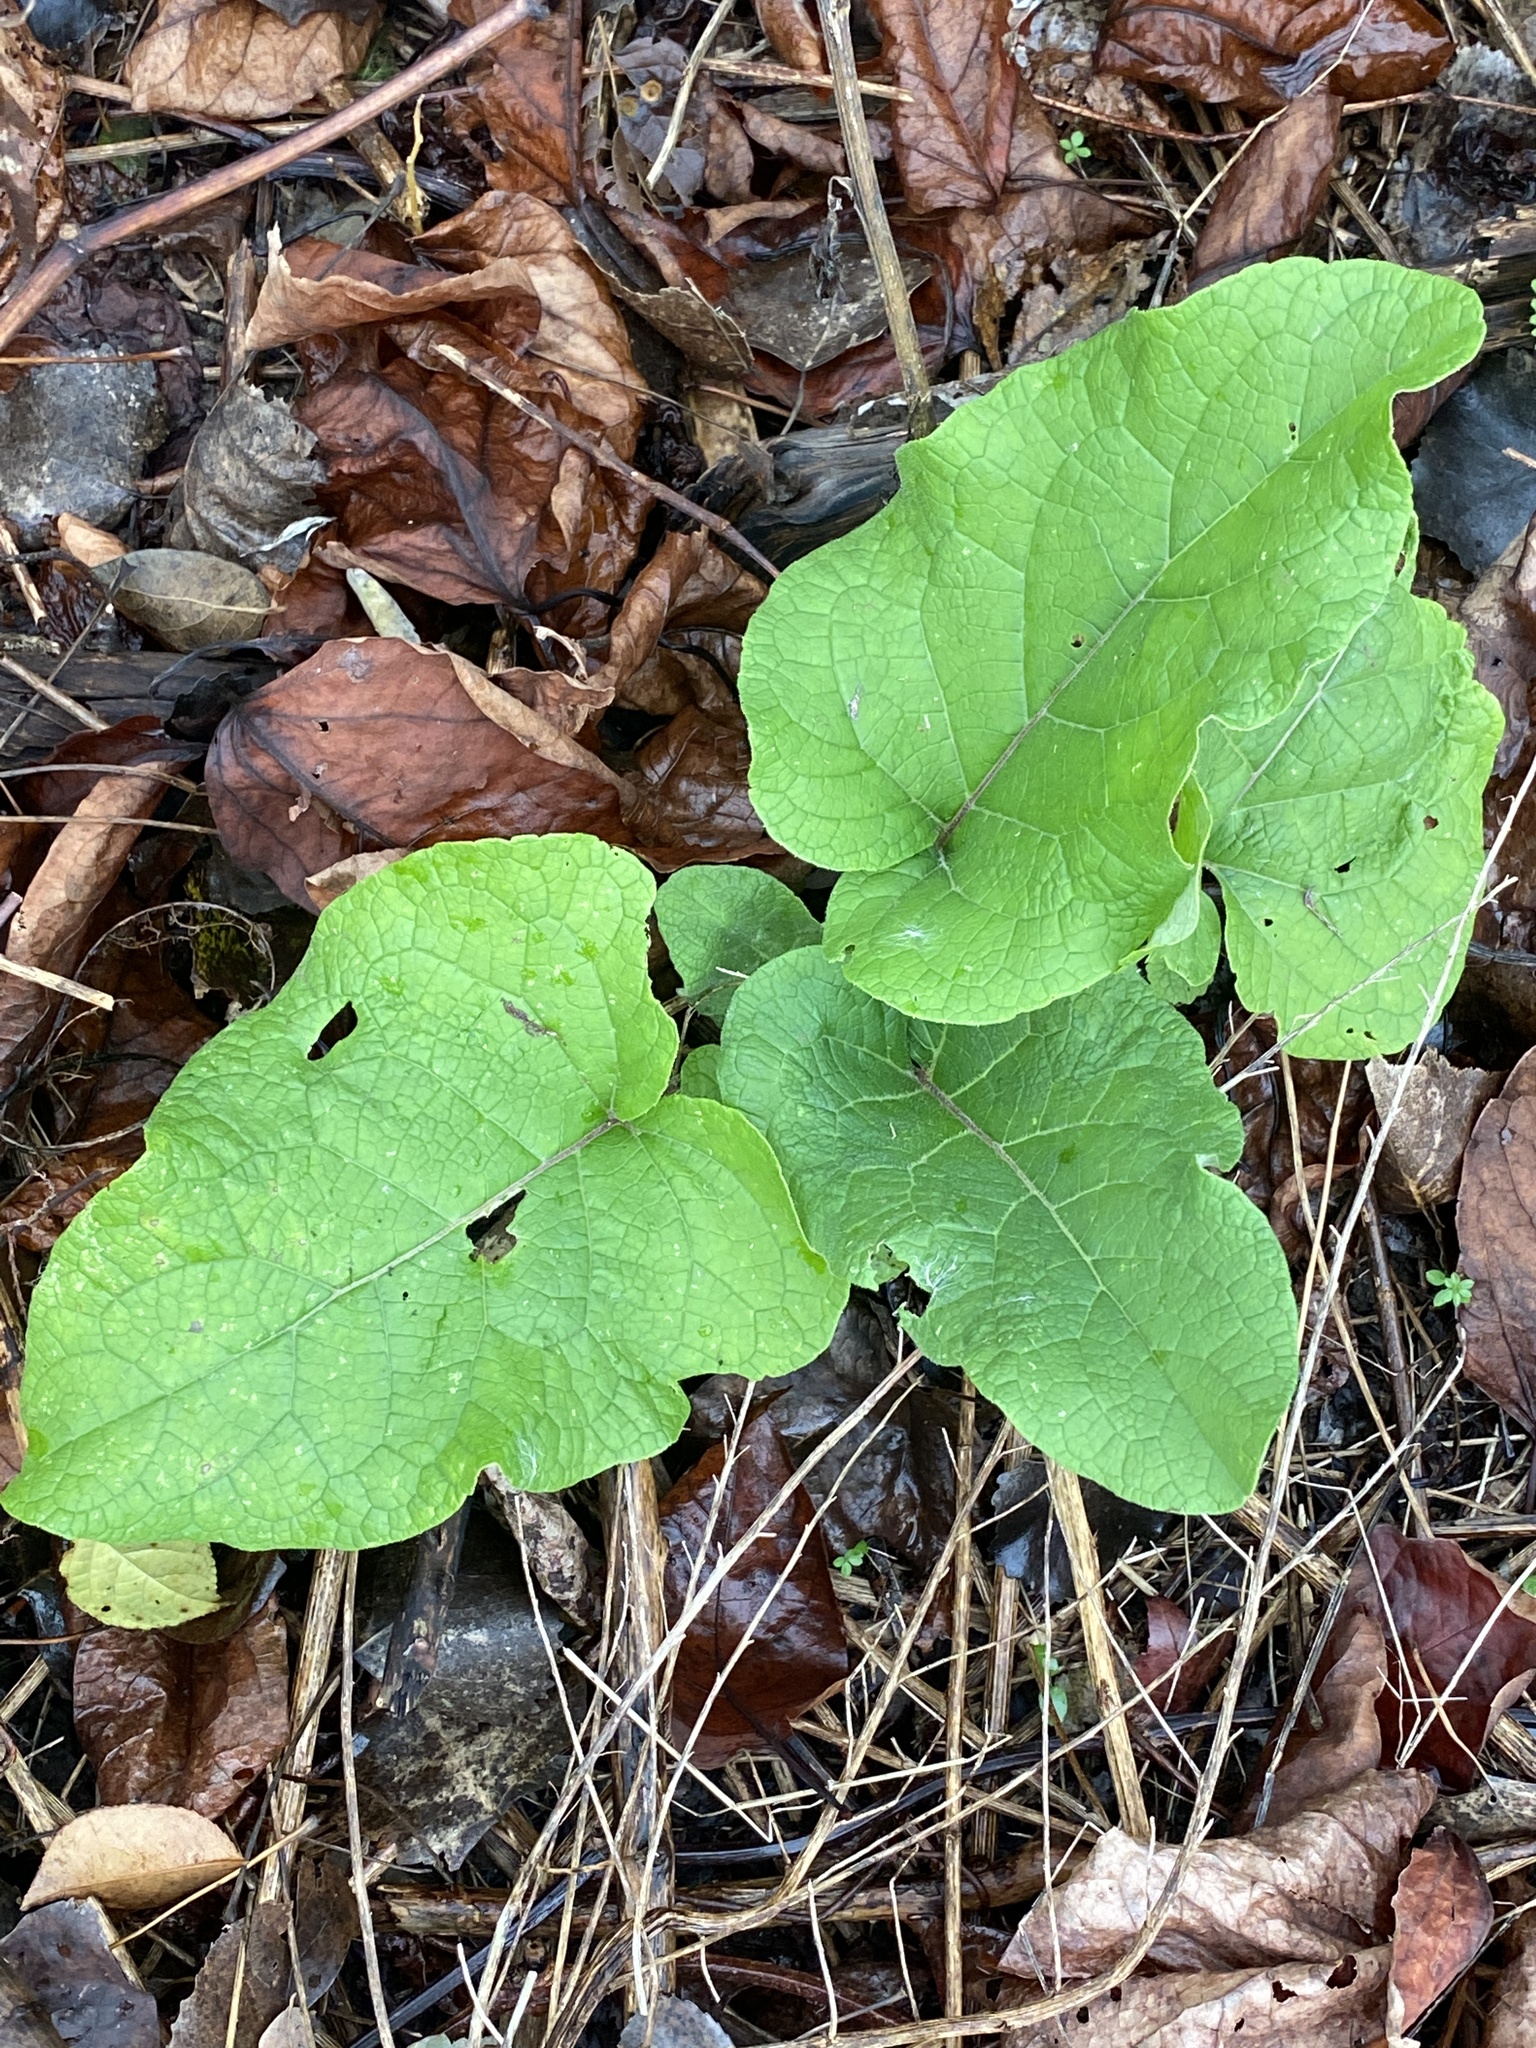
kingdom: Plantae
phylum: Tracheophyta
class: Magnoliopsida
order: Asterales
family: Asteraceae
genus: Arctium
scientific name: Arctium
